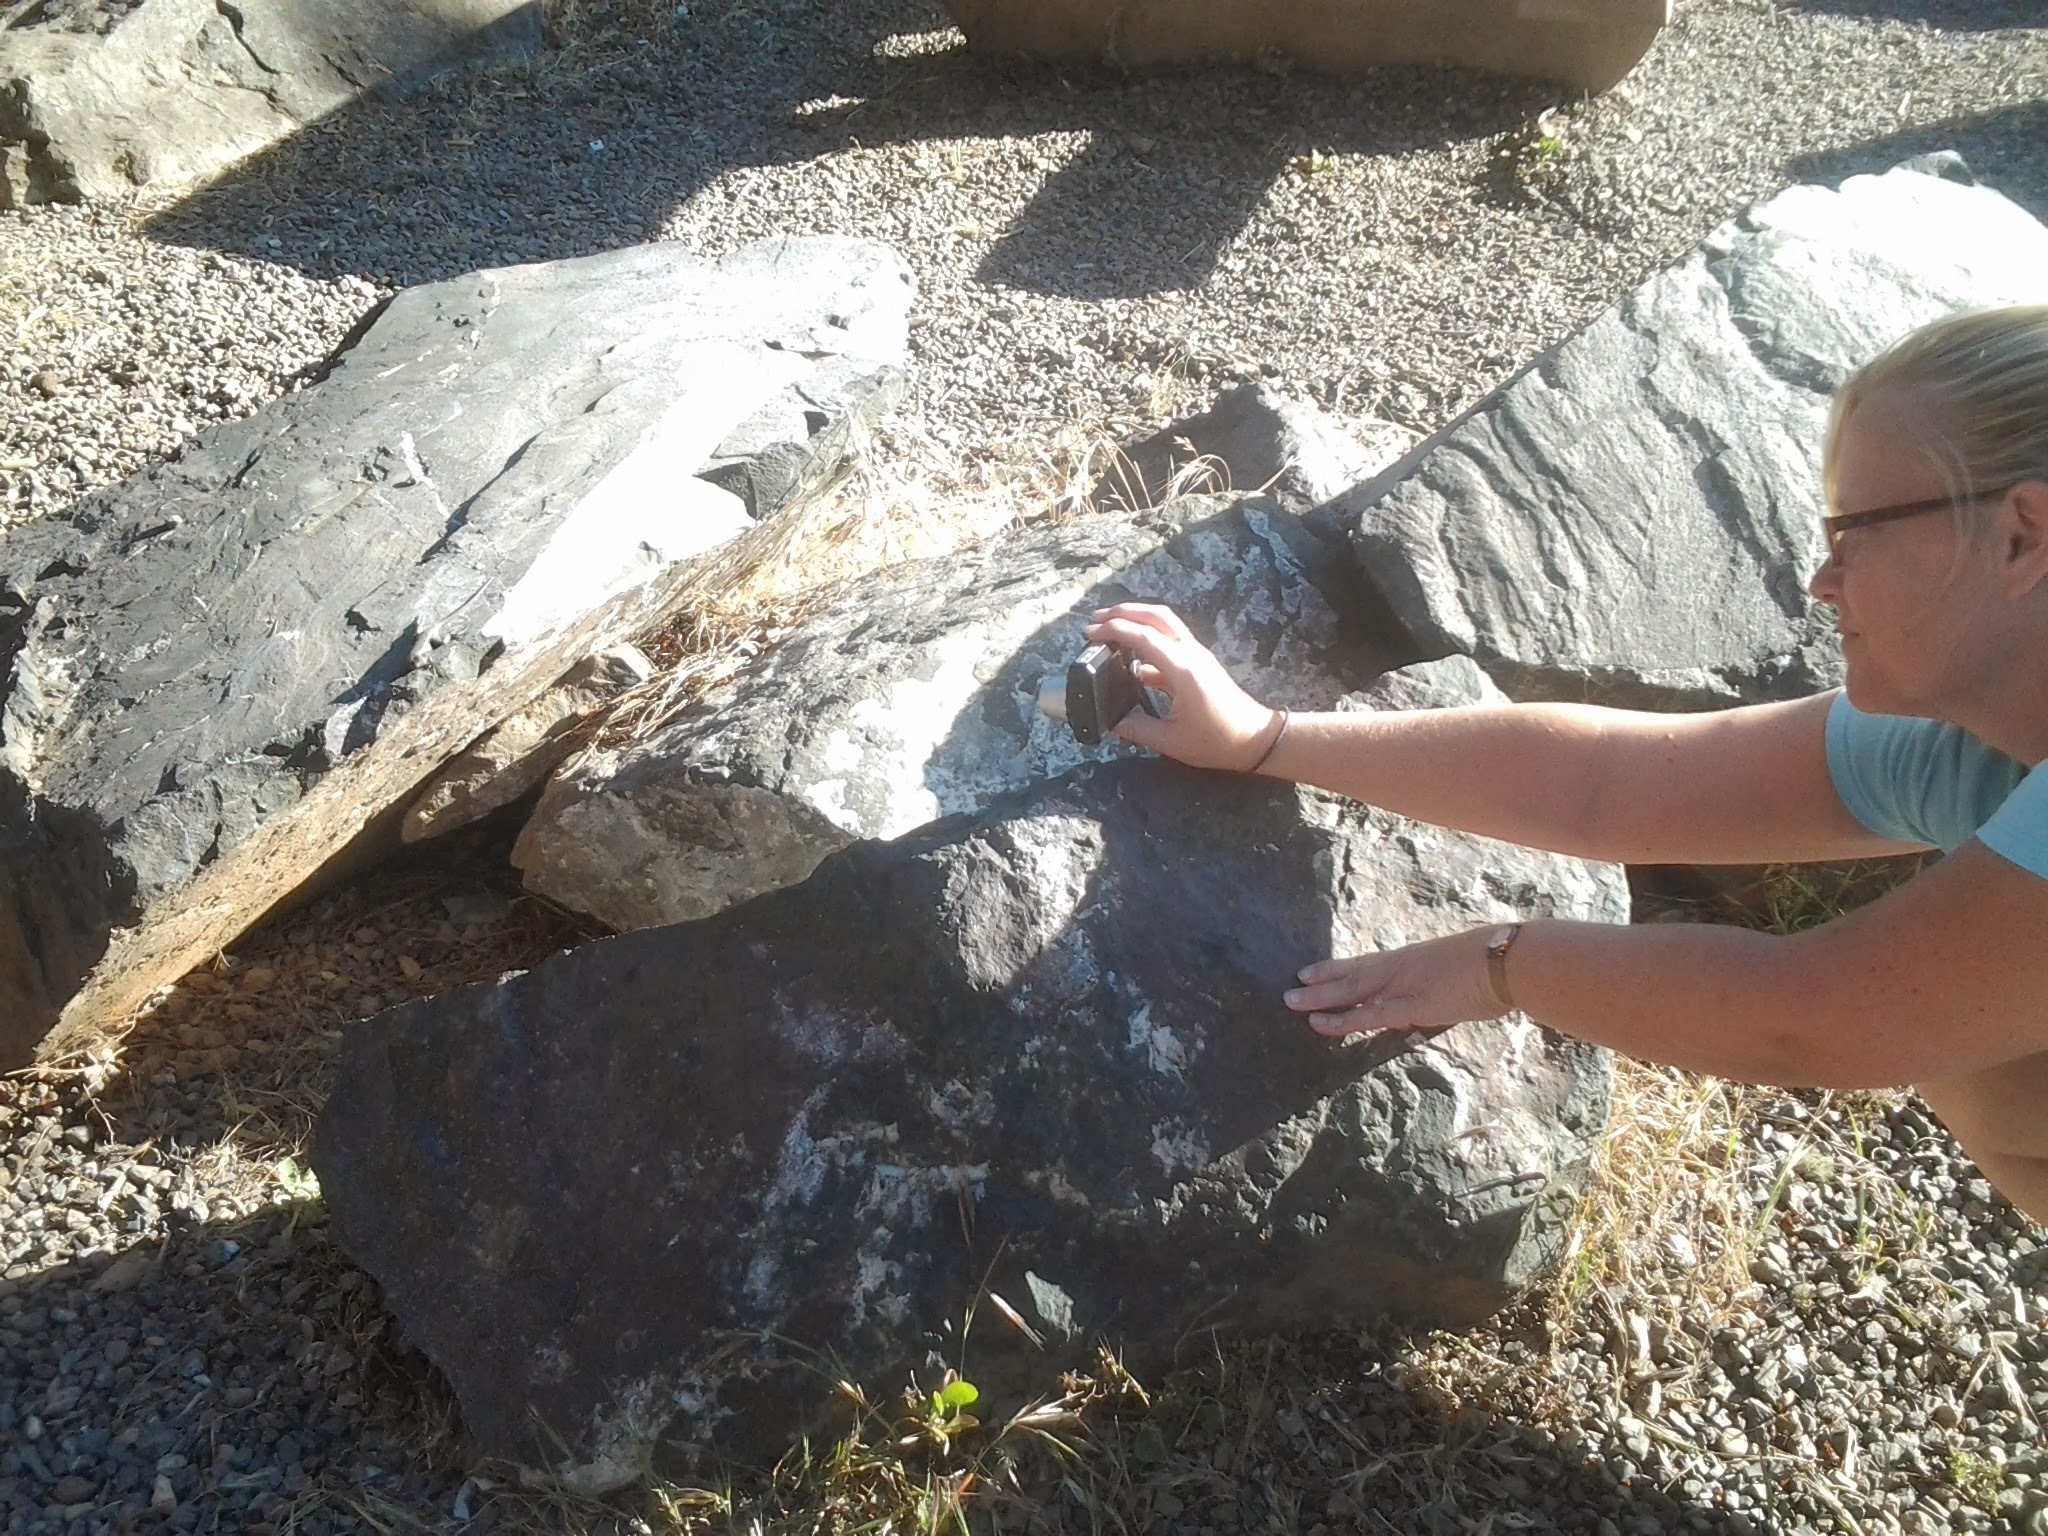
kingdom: Animalia
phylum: Chordata
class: Squamata
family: Phrynosomatidae
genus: Sceloporus
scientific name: Sceloporus occidentalis
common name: Western fence lizard
